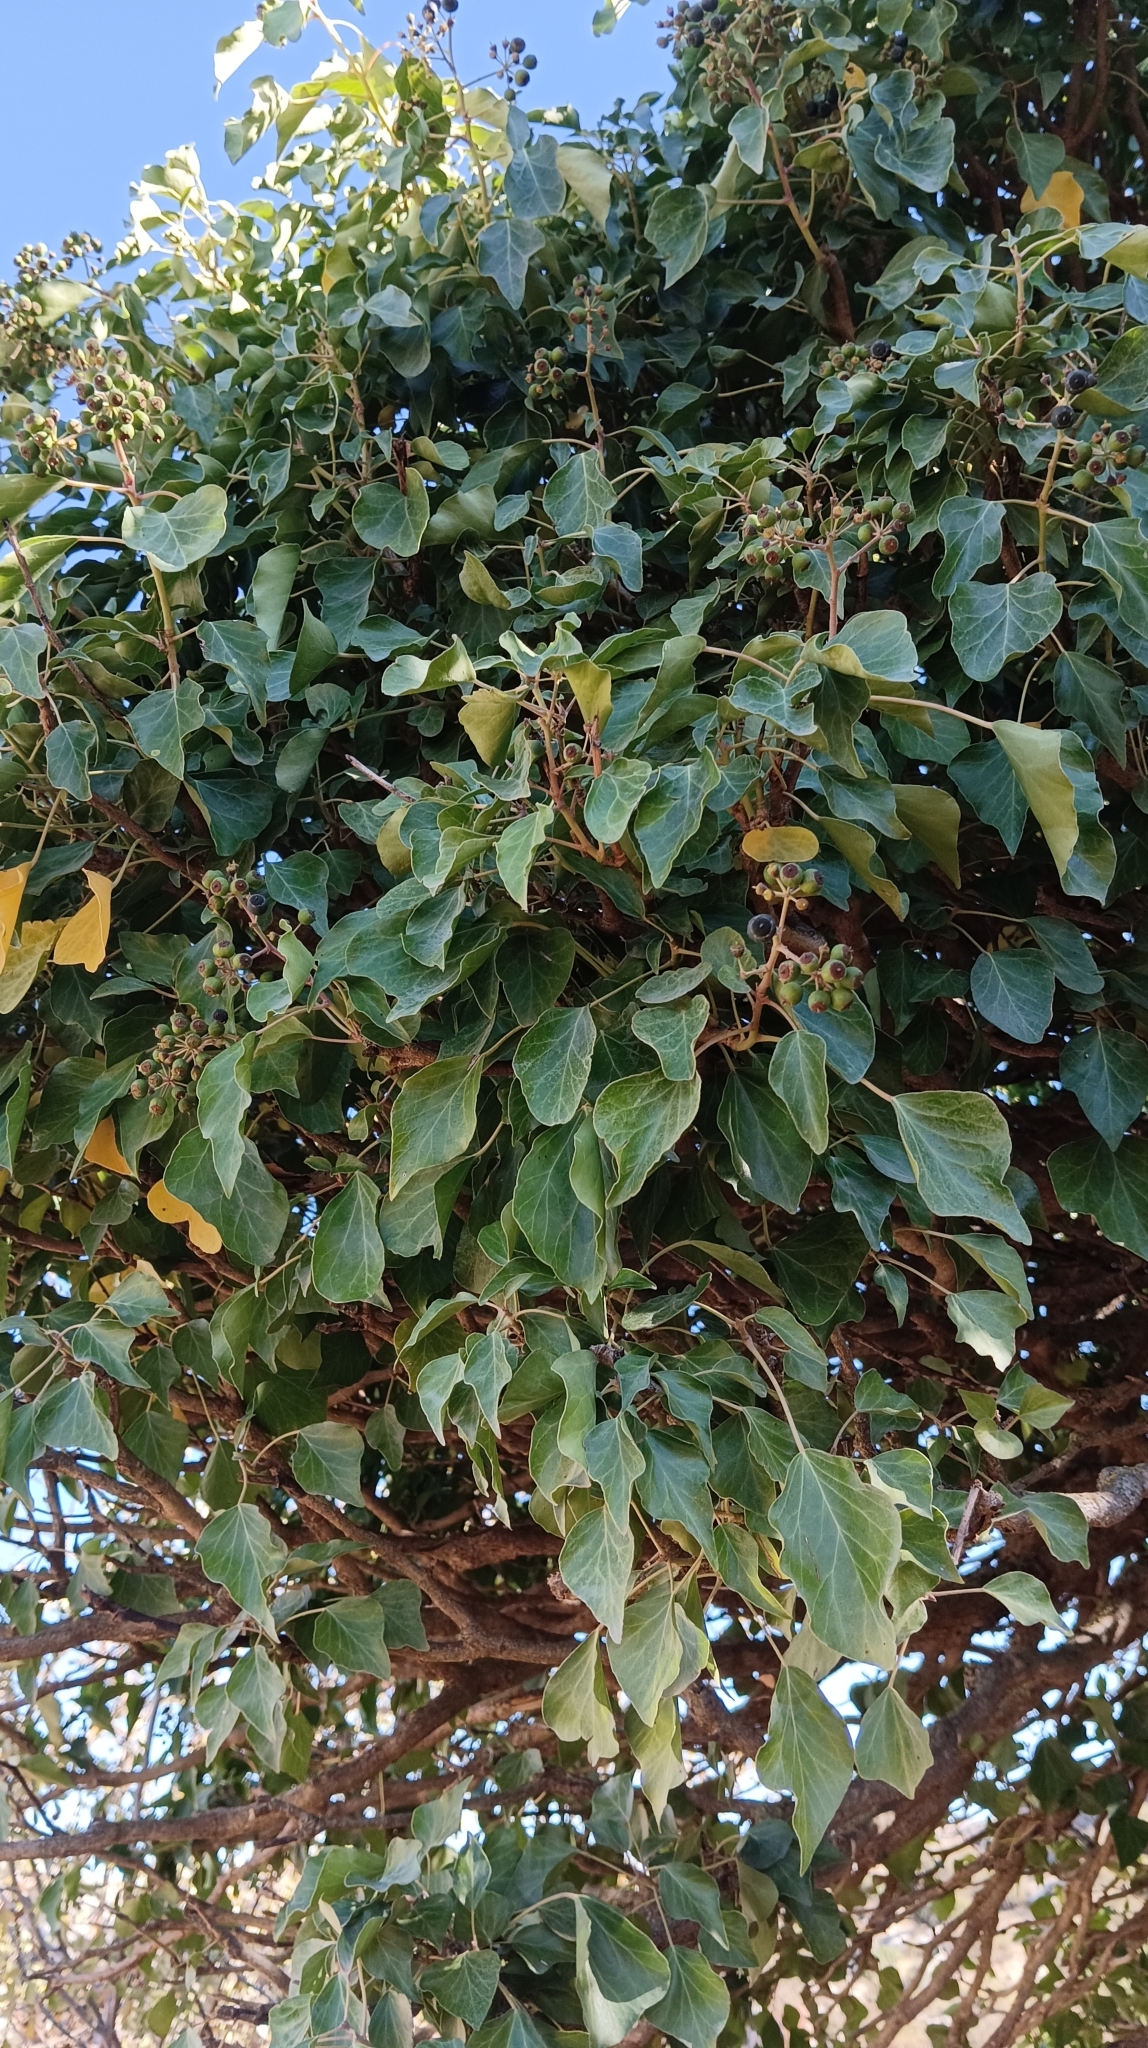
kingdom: Plantae
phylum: Tracheophyta
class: Magnoliopsida
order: Apiales
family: Araliaceae
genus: Hedera
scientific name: Hedera helix
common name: Ivy
